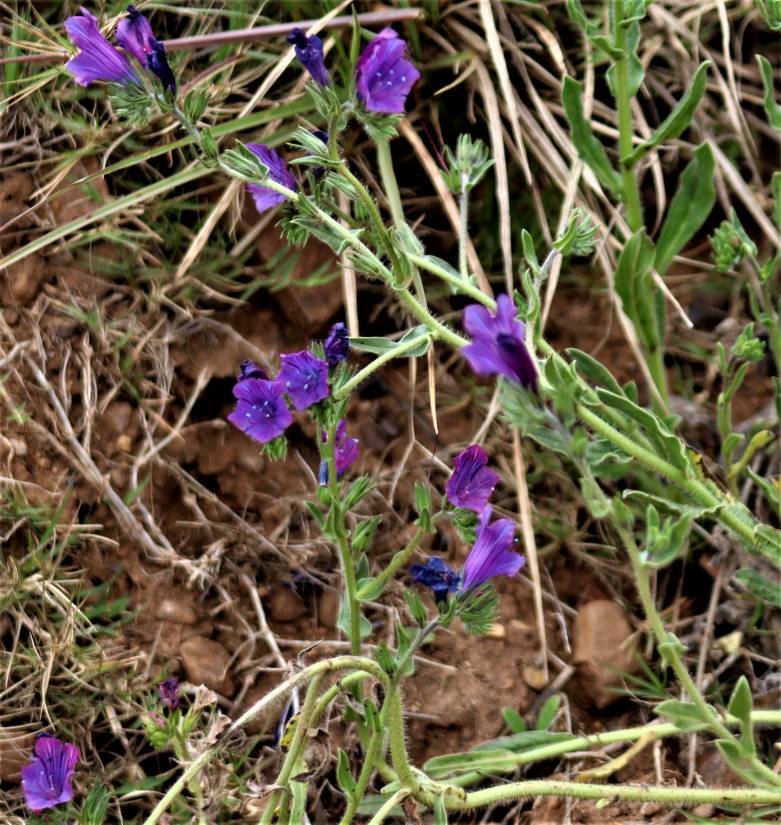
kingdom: Plantae
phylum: Tracheophyta
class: Magnoliopsida
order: Boraginales
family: Boraginaceae
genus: Echium
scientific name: Echium plantagineum
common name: Purple viper's-bugloss
